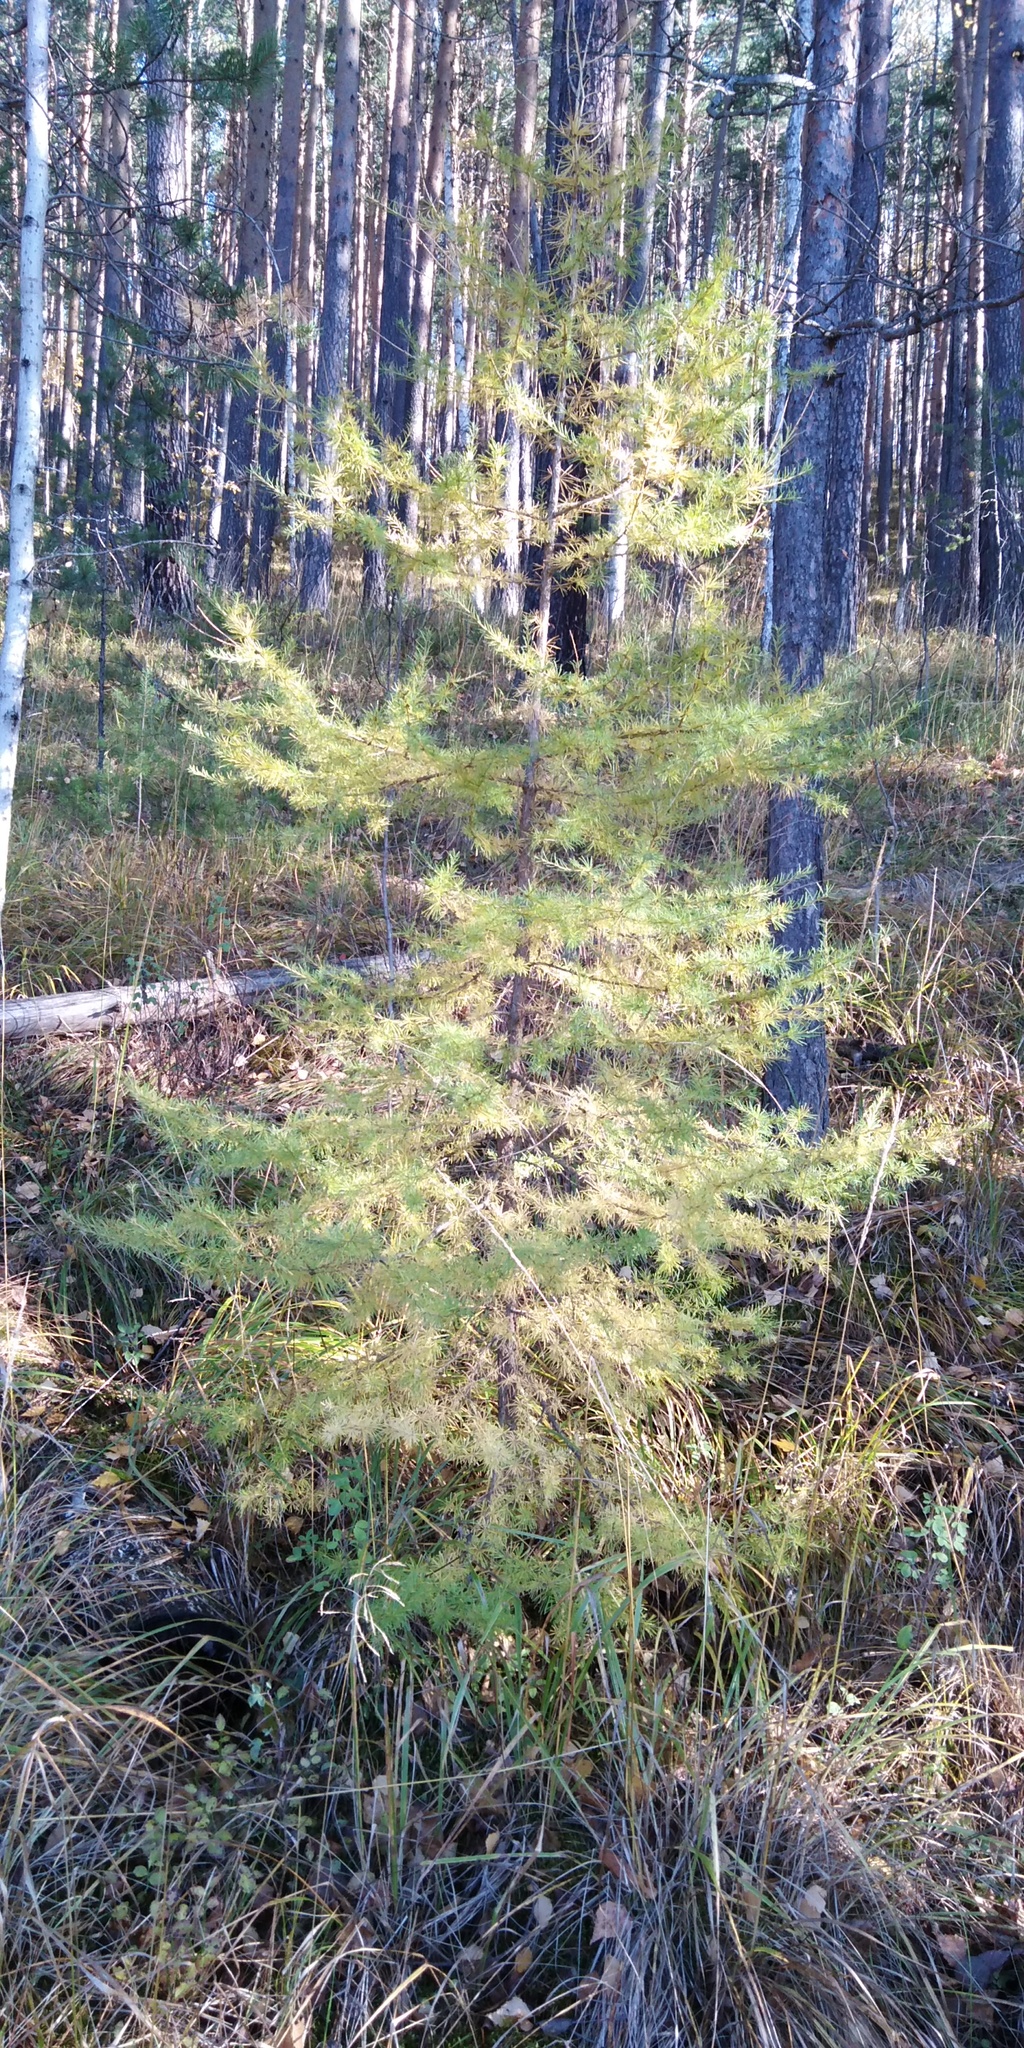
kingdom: Plantae
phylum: Tracheophyta
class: Pinopsida
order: Pinales
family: Pinaceae
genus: Larix
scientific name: Larix sibirica
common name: Siberian larch
